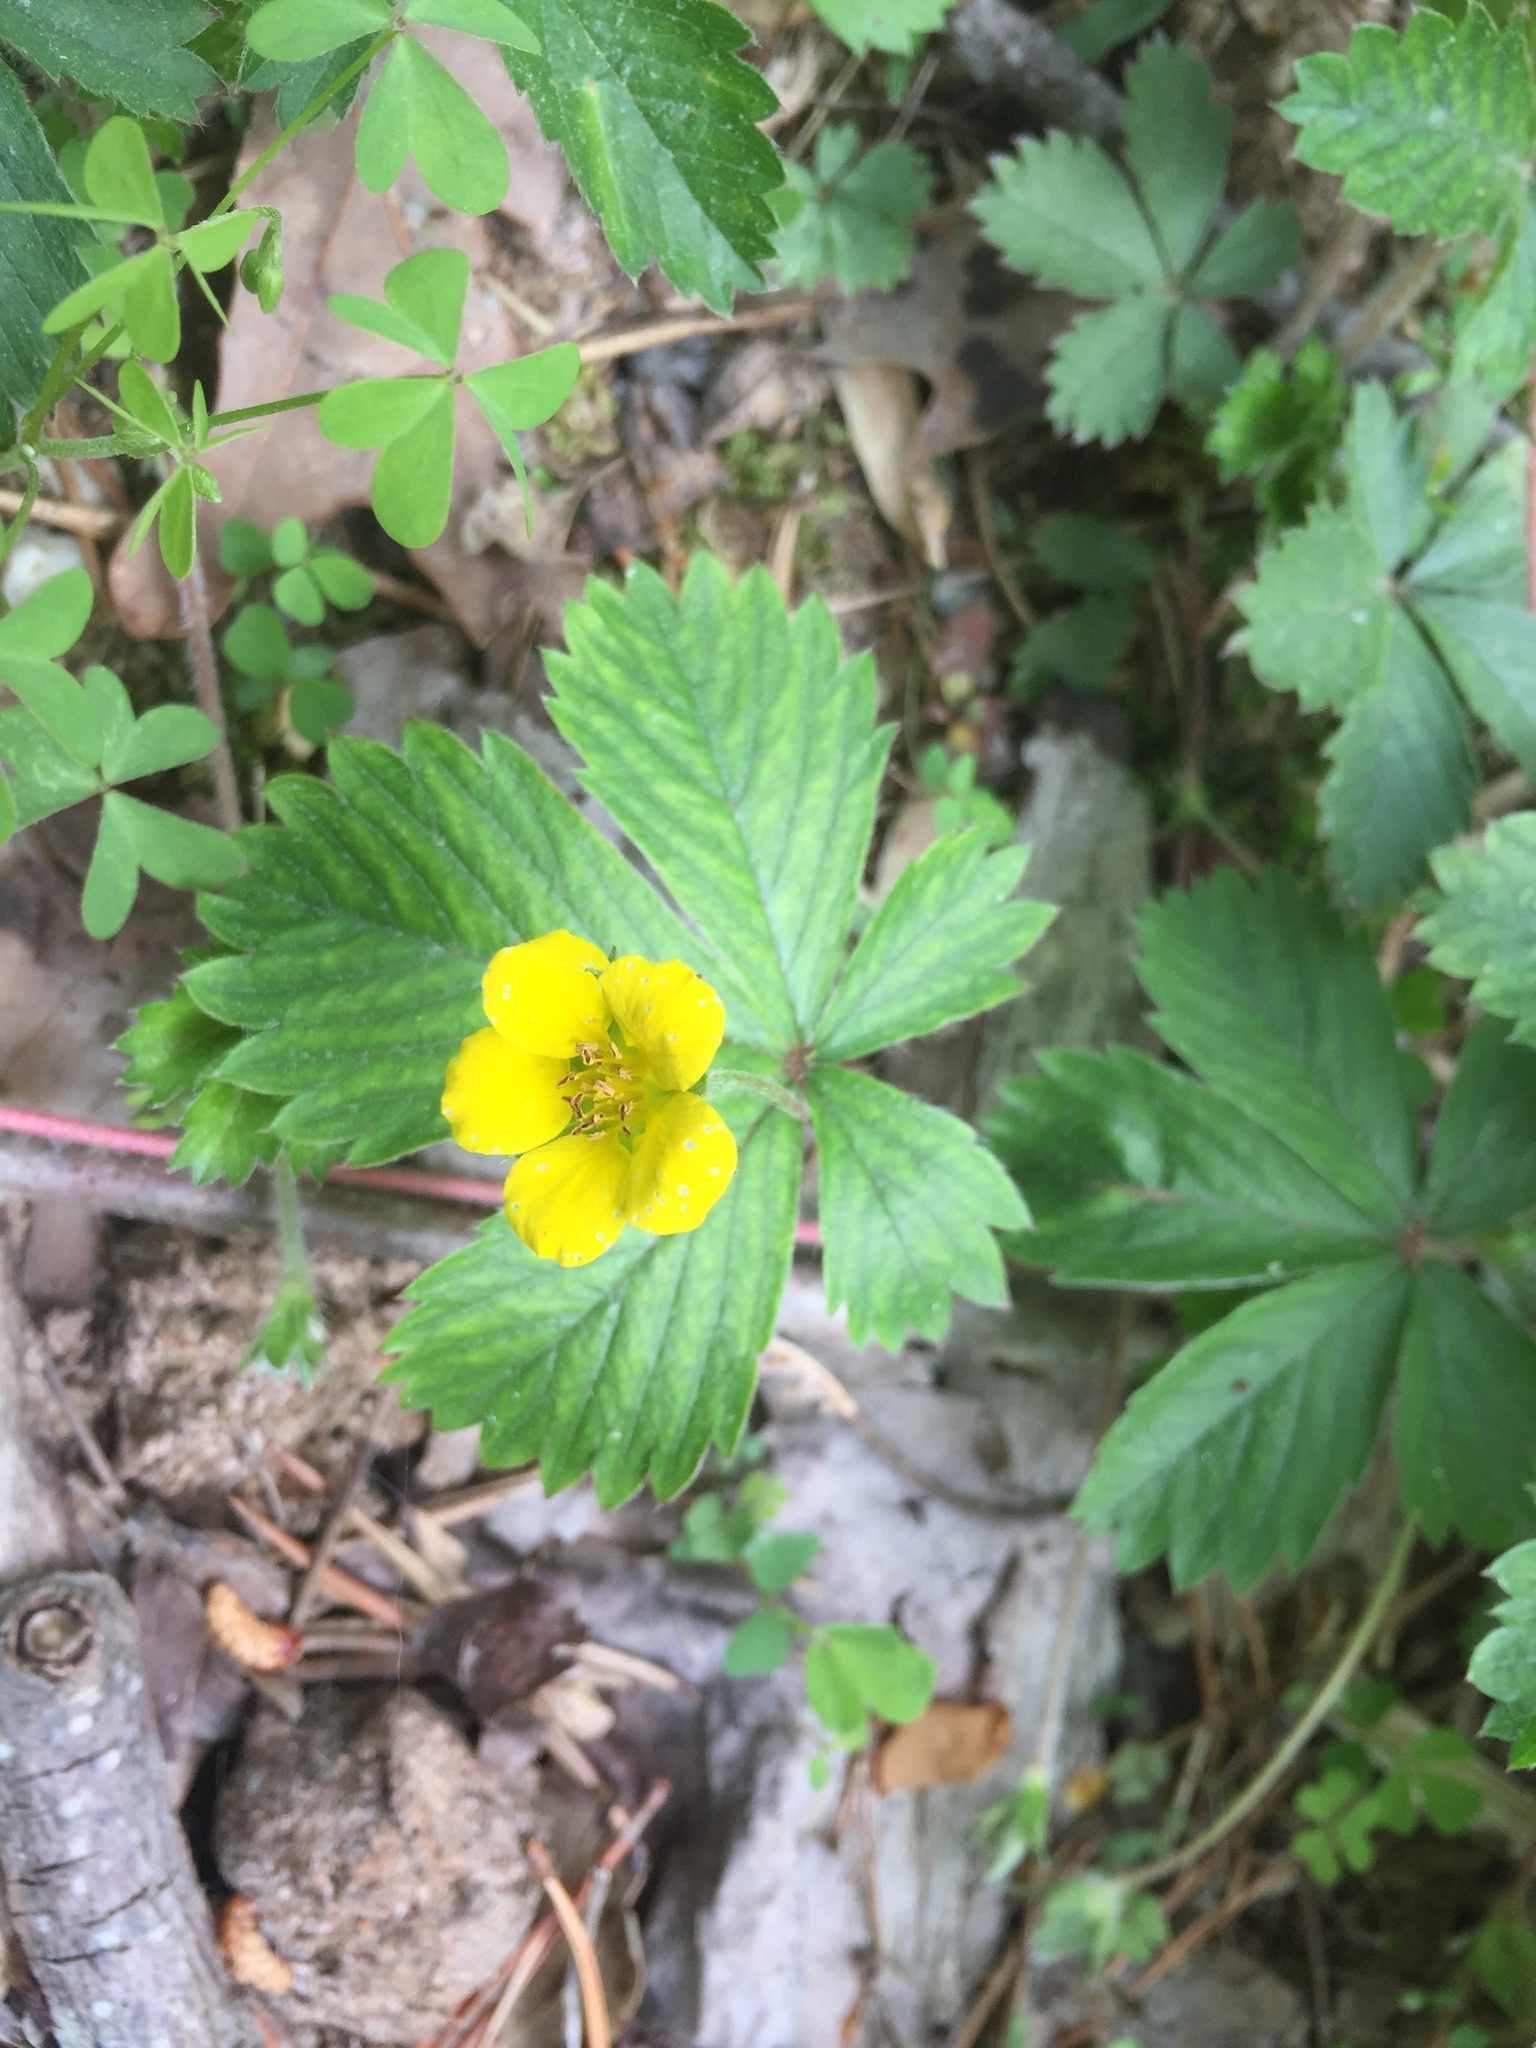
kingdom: Plantae
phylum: Tracheophyta
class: Magnoliopsida
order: Rosales
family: Rosaceae
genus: Potentilla
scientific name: Potentilla canadensis
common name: Canada cinquefoil
